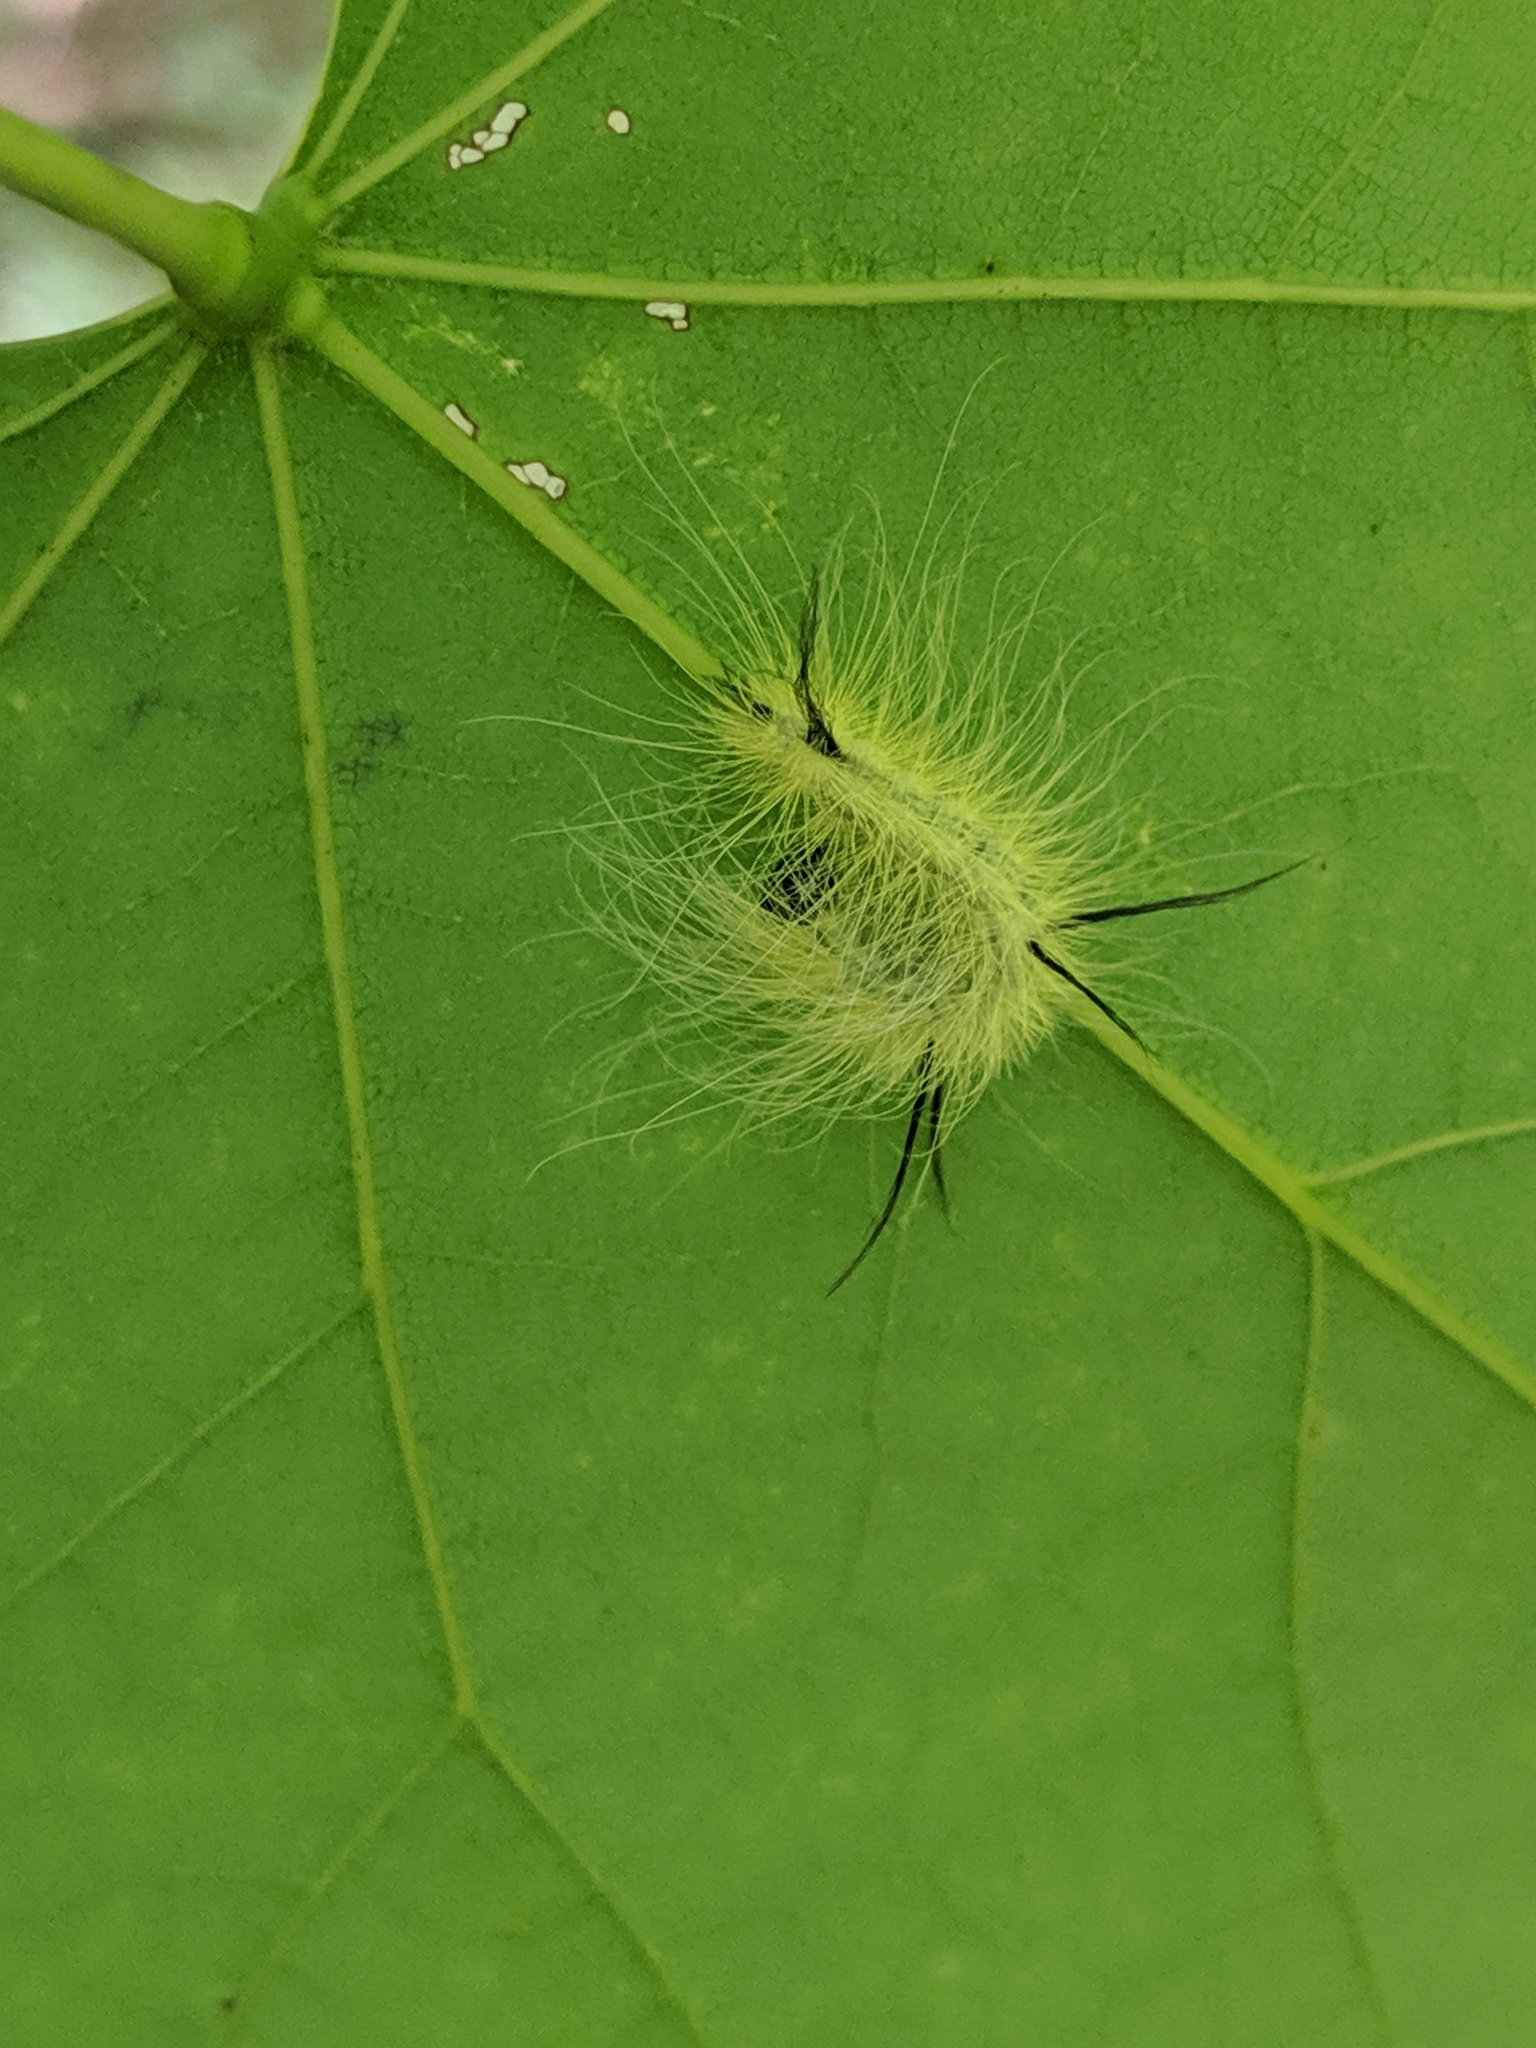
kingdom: Animalia
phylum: Arthropoda
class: Insecta
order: Lepidoptera
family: Noctuidae
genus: Acronicta
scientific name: Acronicta americana
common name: American dagger
